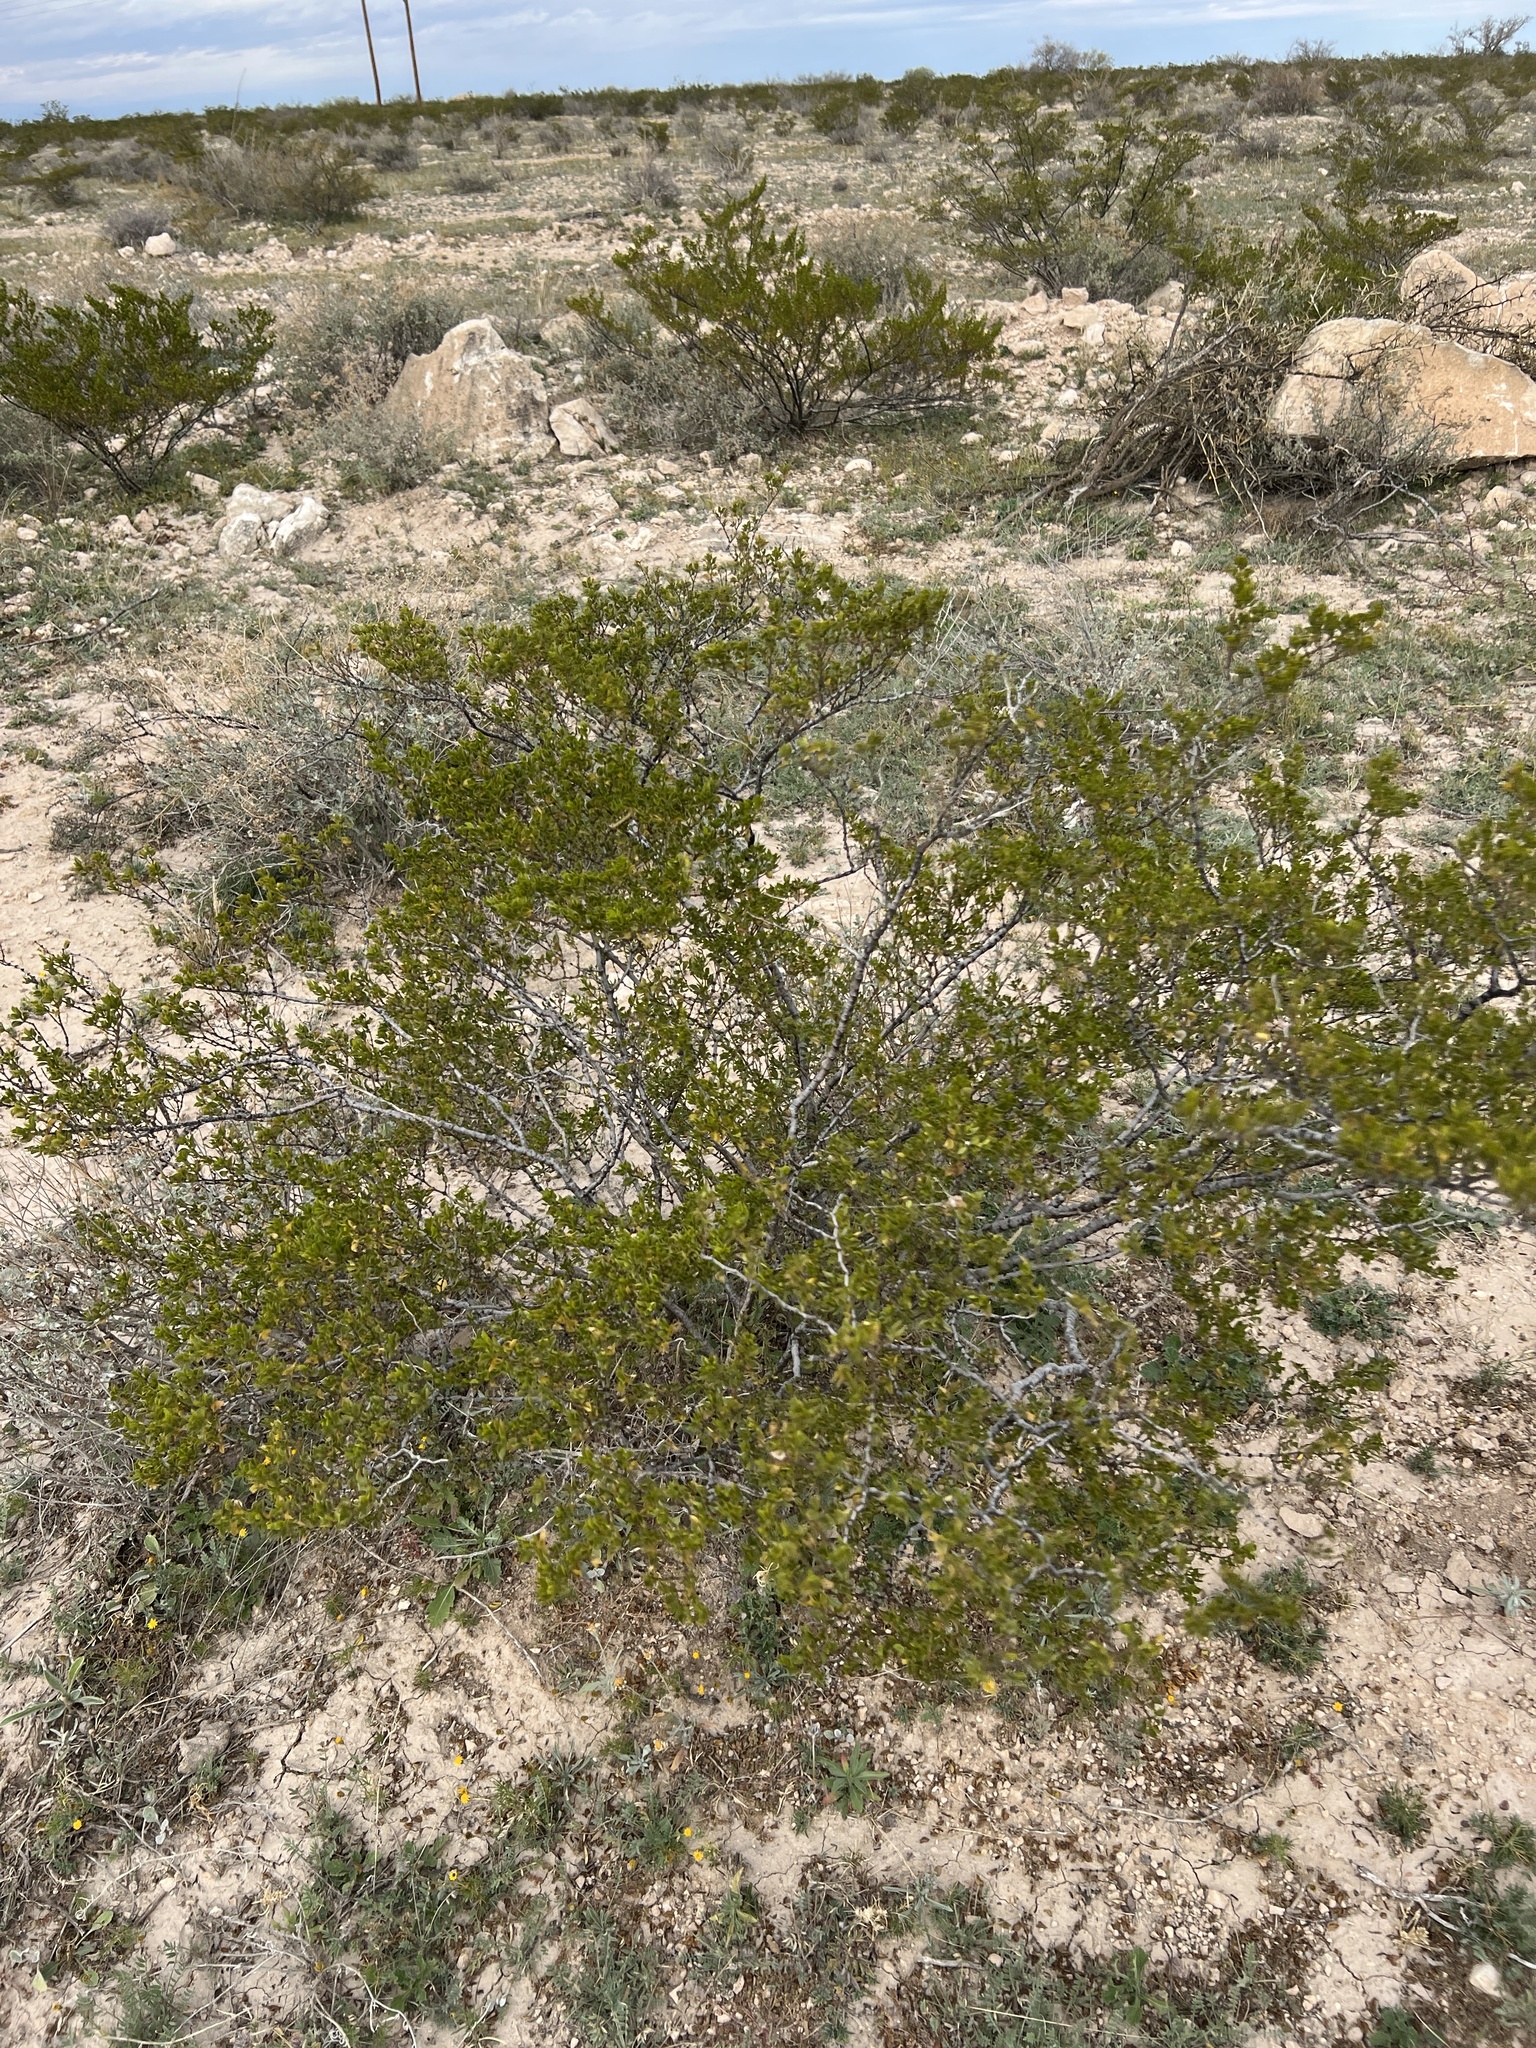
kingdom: Plantae
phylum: Tracheophyta
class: Magnoliopsida
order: Zygophyllales
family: Zygophyllaceae
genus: Larrea
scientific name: Larrea tridentata
